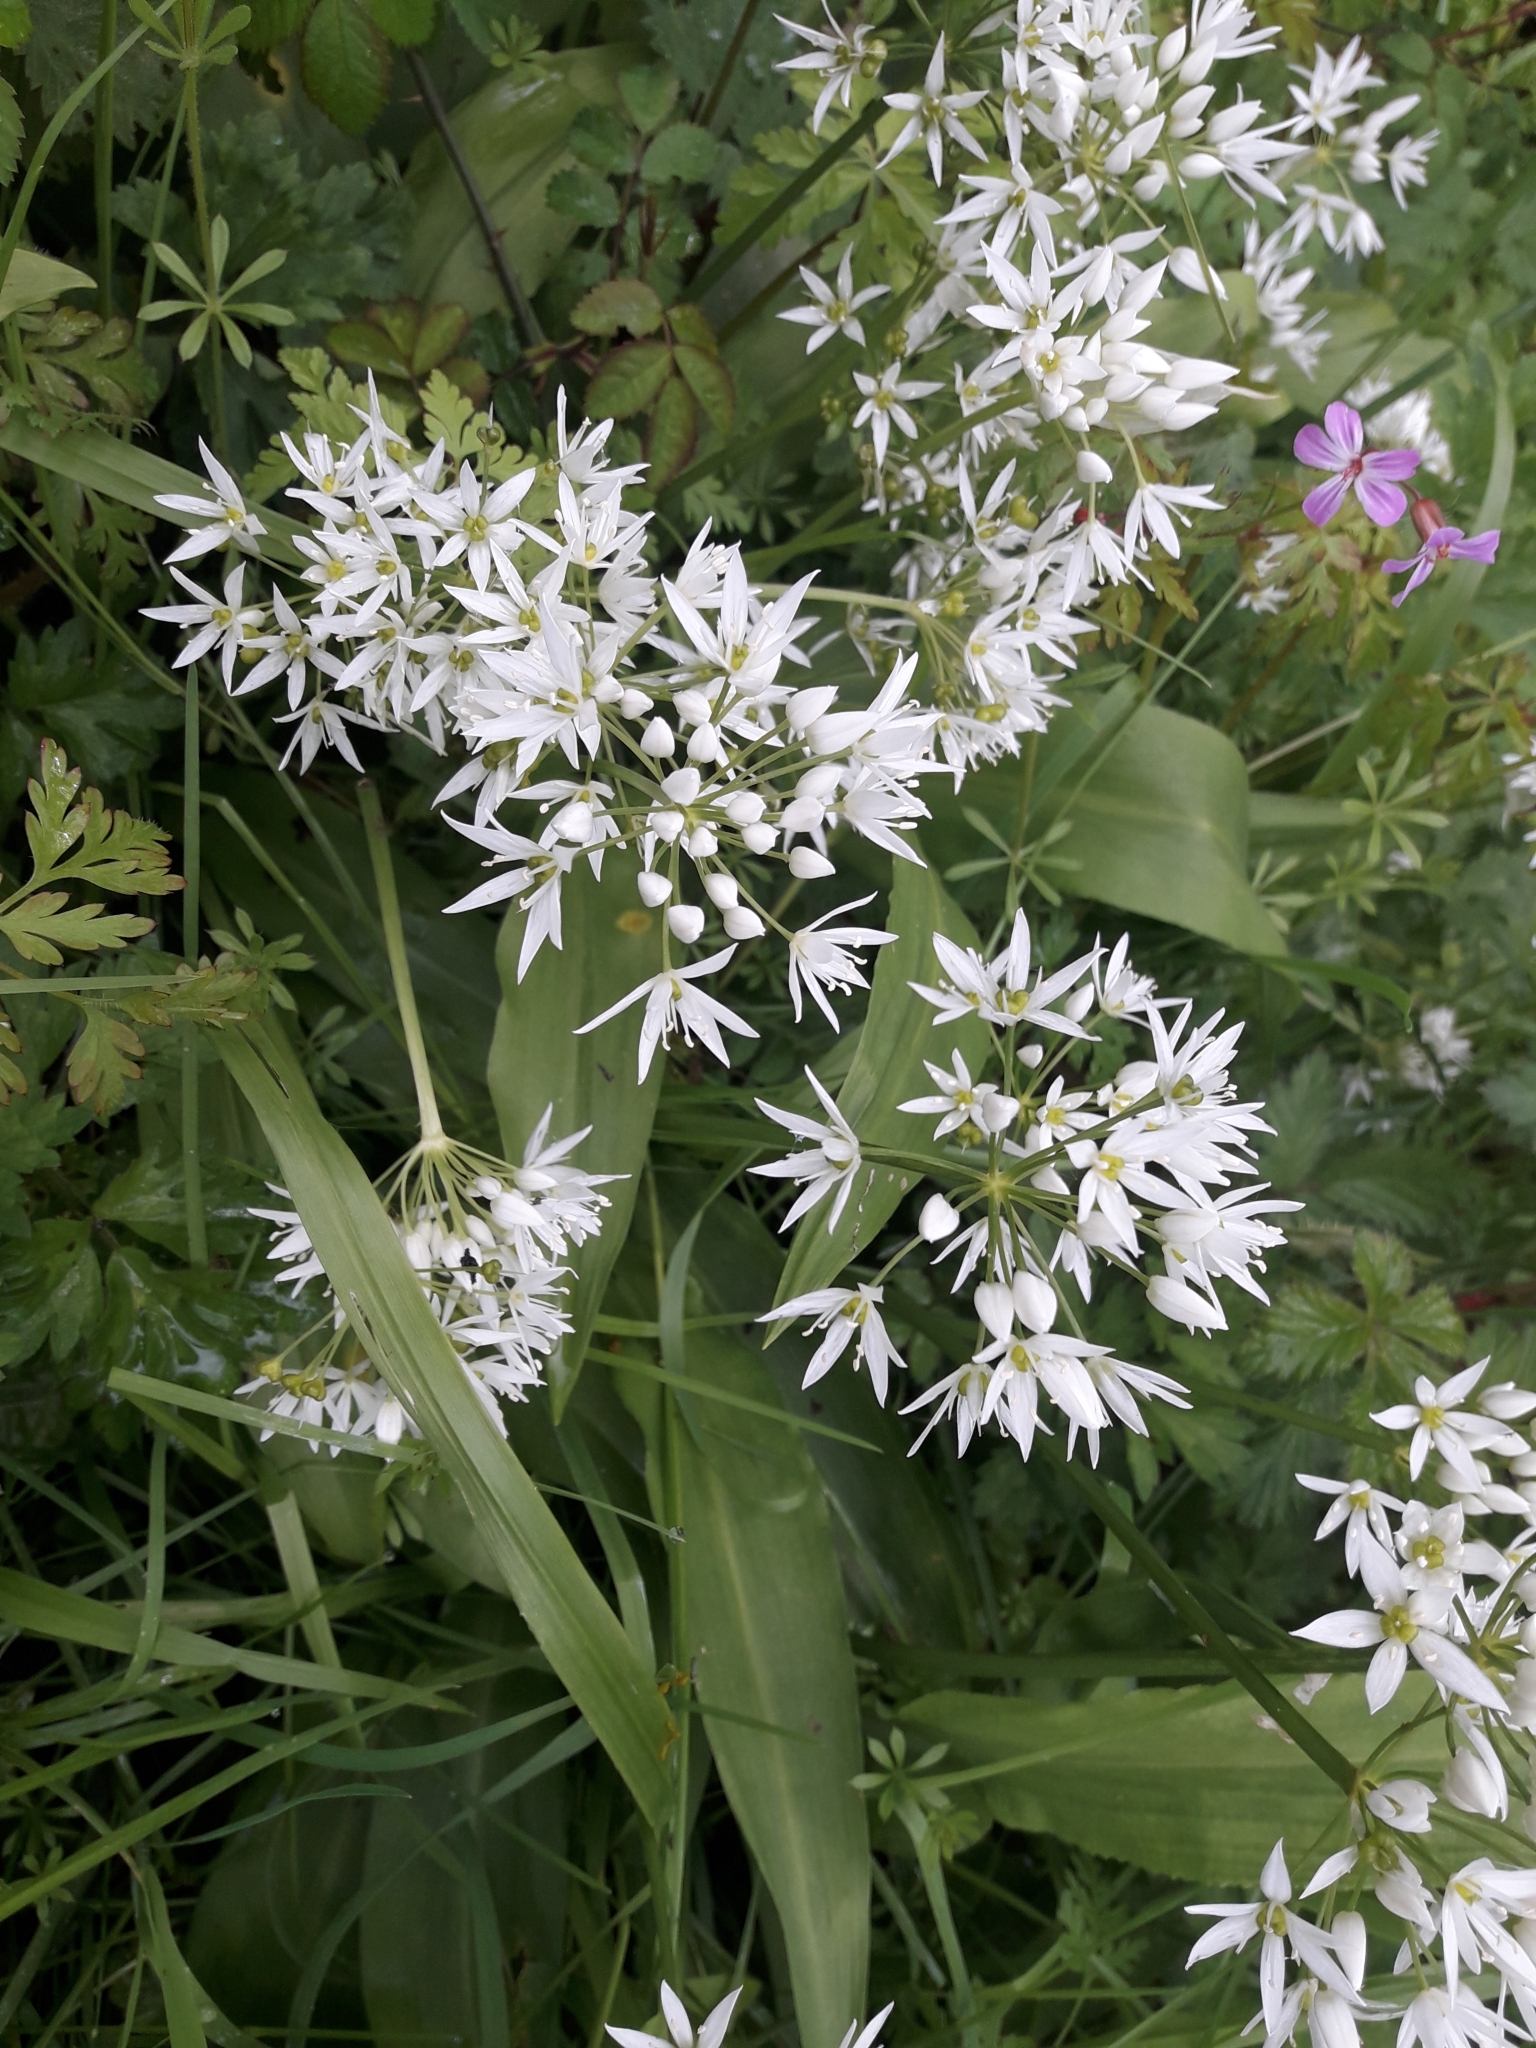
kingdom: Plantae
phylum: Tracheophyta
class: Liliopsida
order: Asparagales
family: Amaryllidaceae
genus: Allium
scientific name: Allium ursinum
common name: Ramsons
